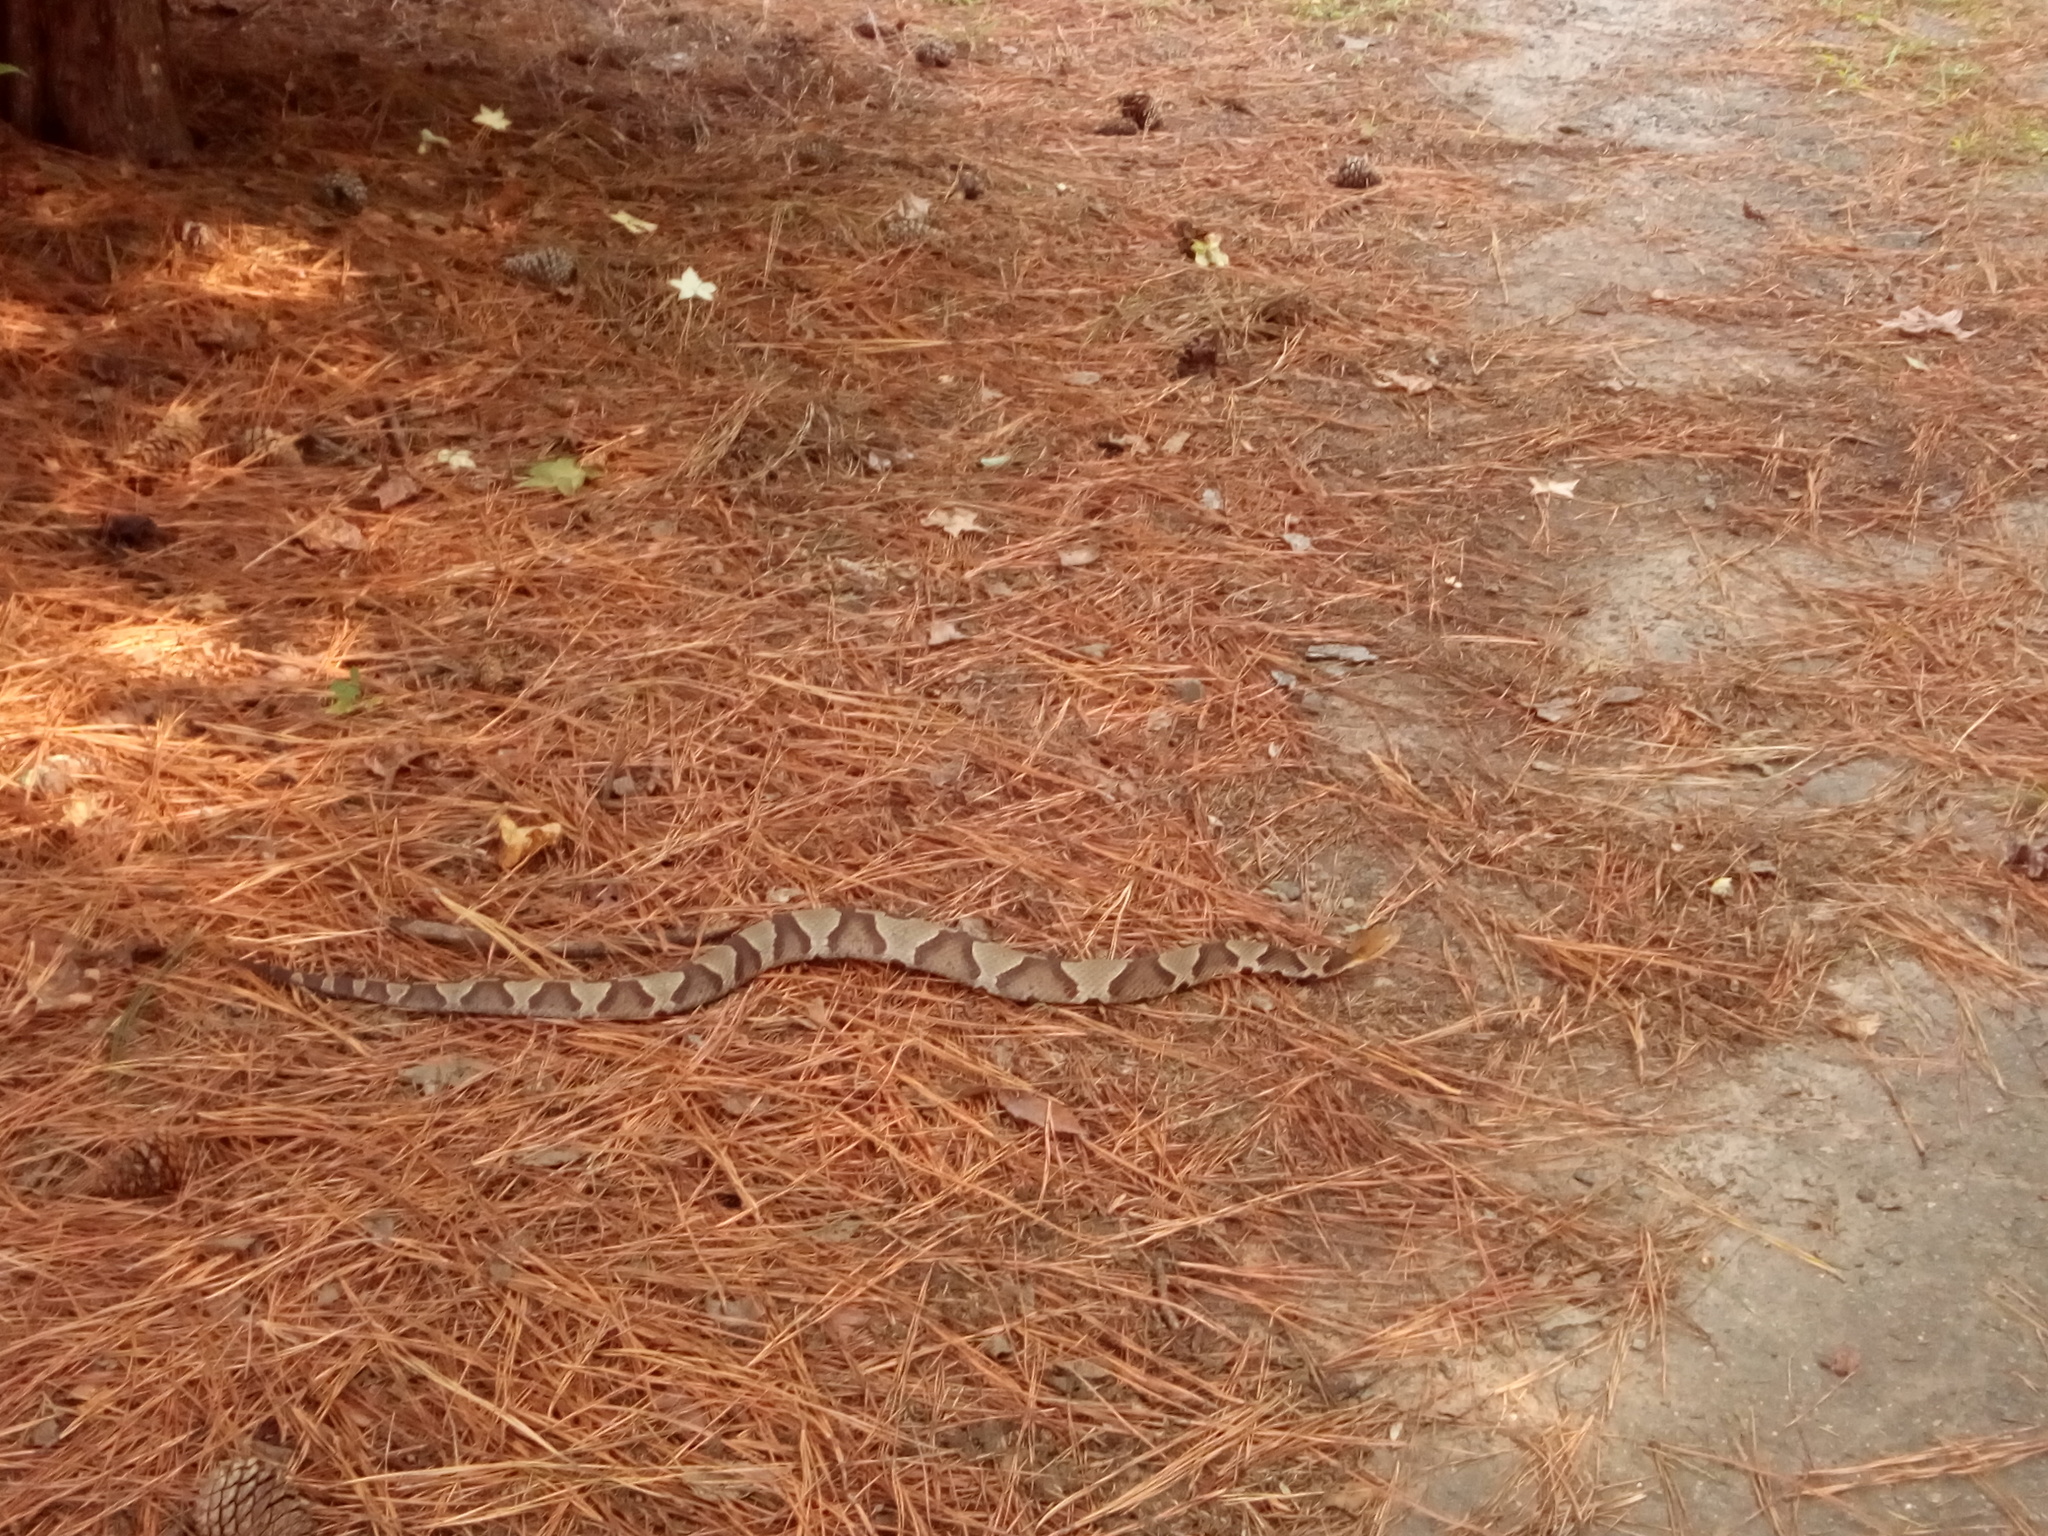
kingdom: Animalia
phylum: Chordata
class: Squamata
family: Viperidae
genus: Agkistrodon
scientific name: Agkistrodon contortrix
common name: Northern copperhead
